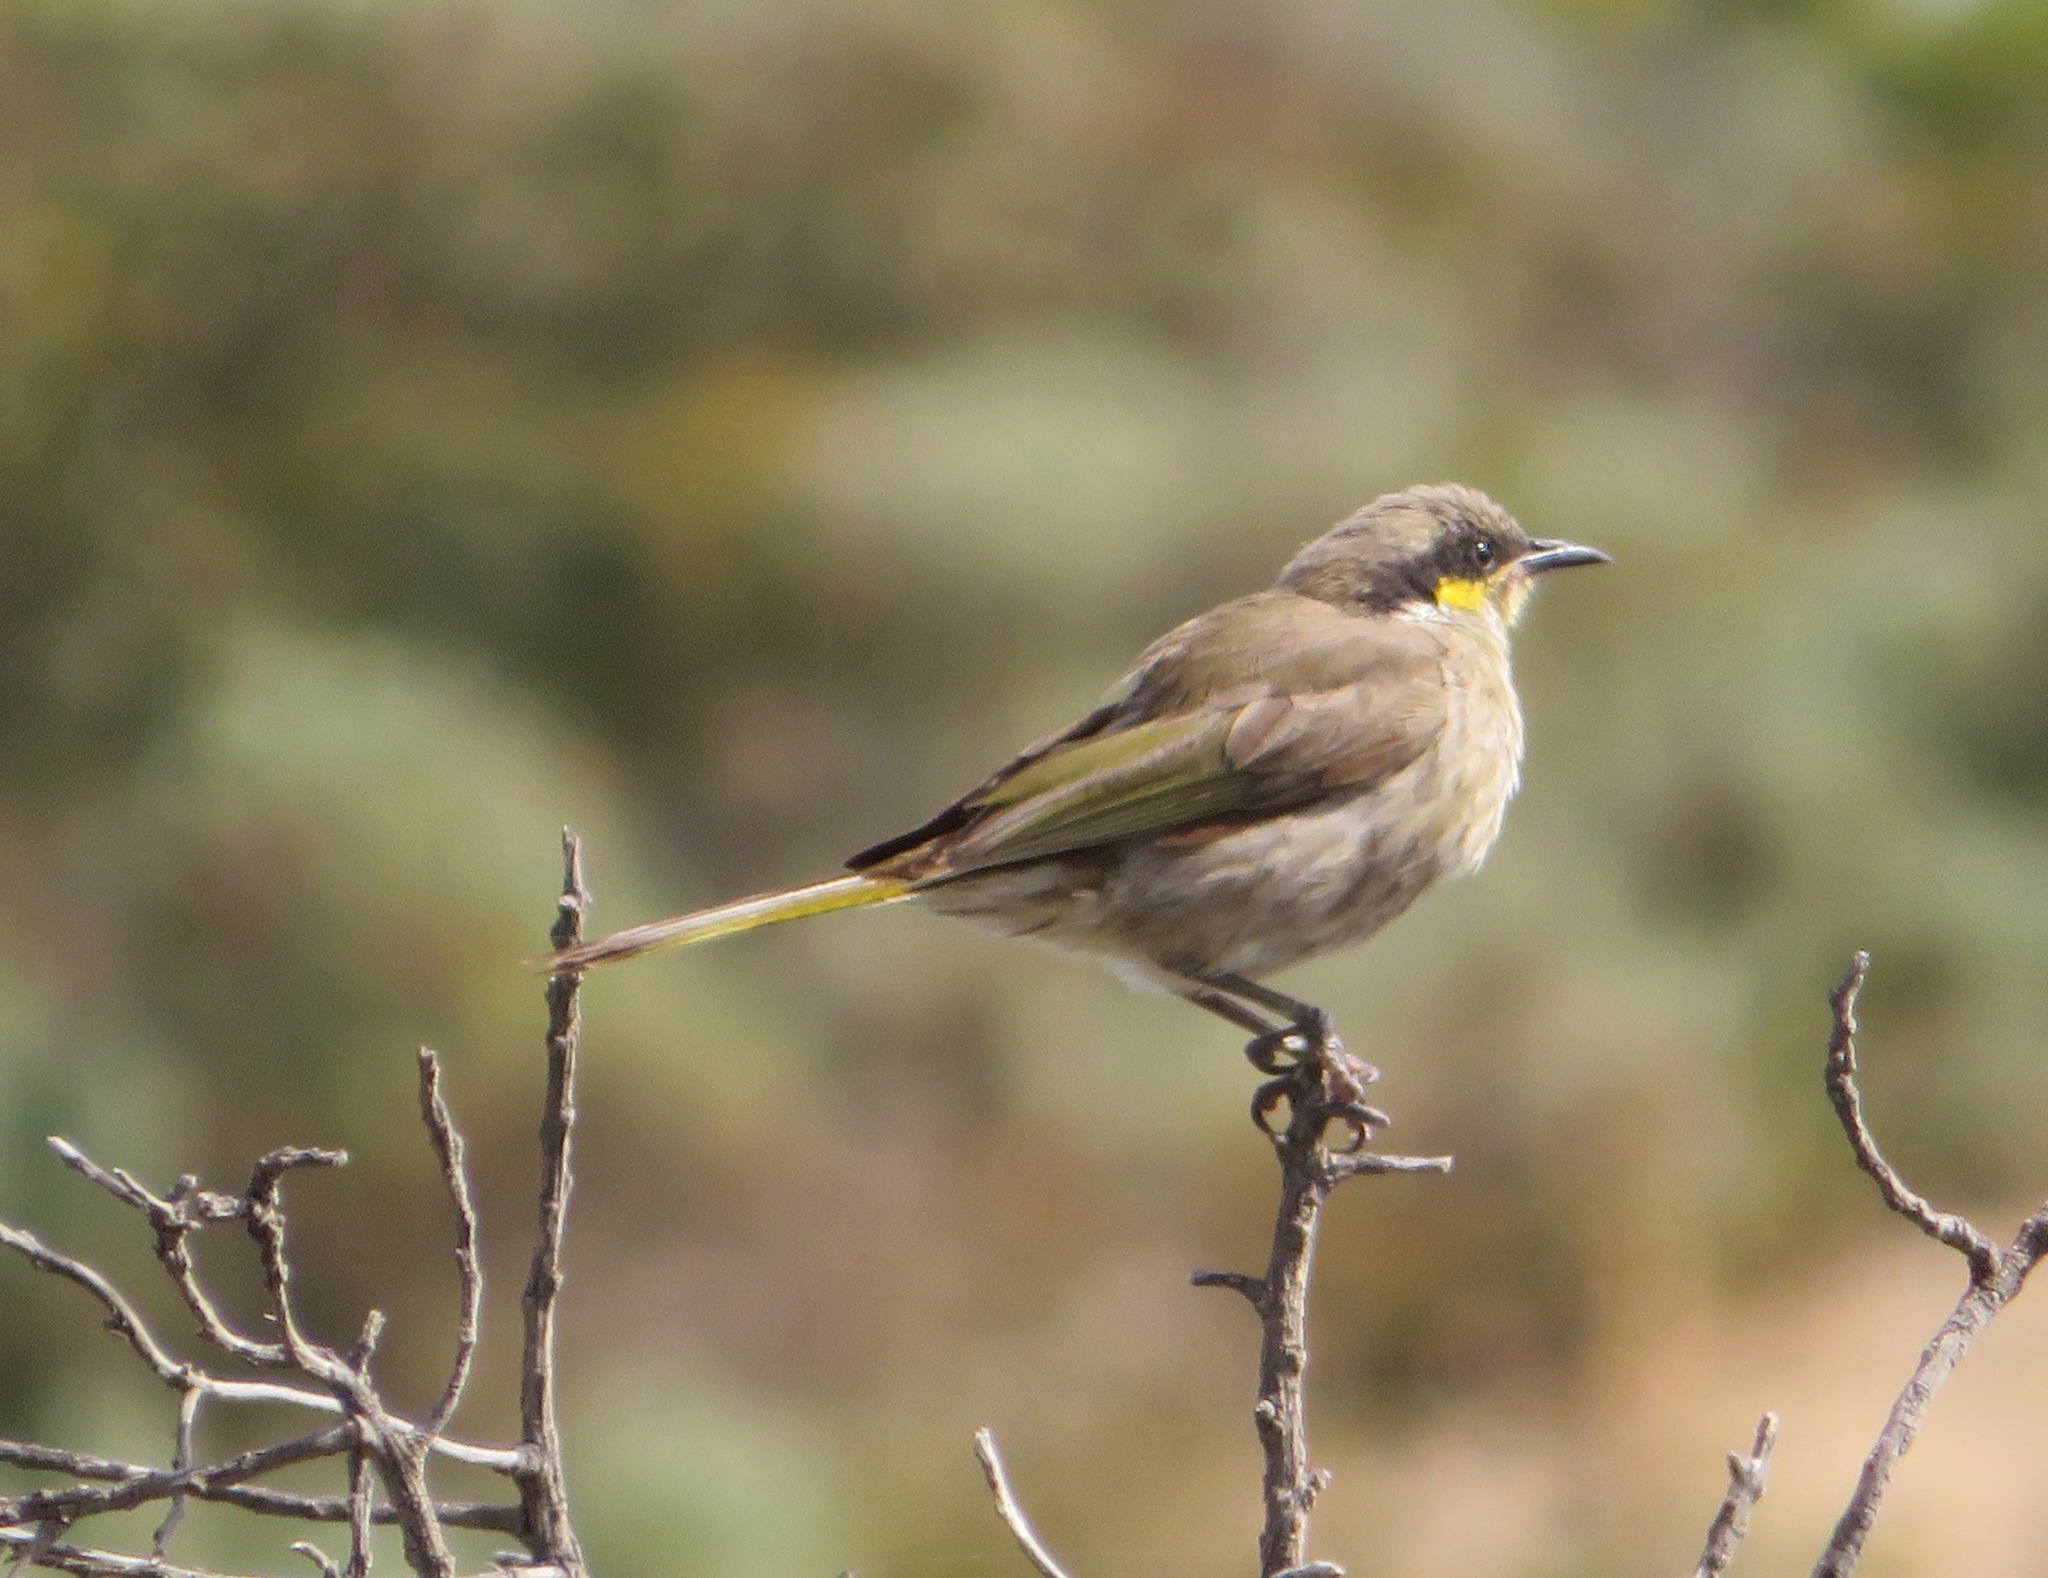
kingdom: Animalia
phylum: Chordata
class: Aves
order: Passeriformes
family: Meliphagidae
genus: Gavicalis
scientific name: Gavicalis virescens
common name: Singing honeyeater
